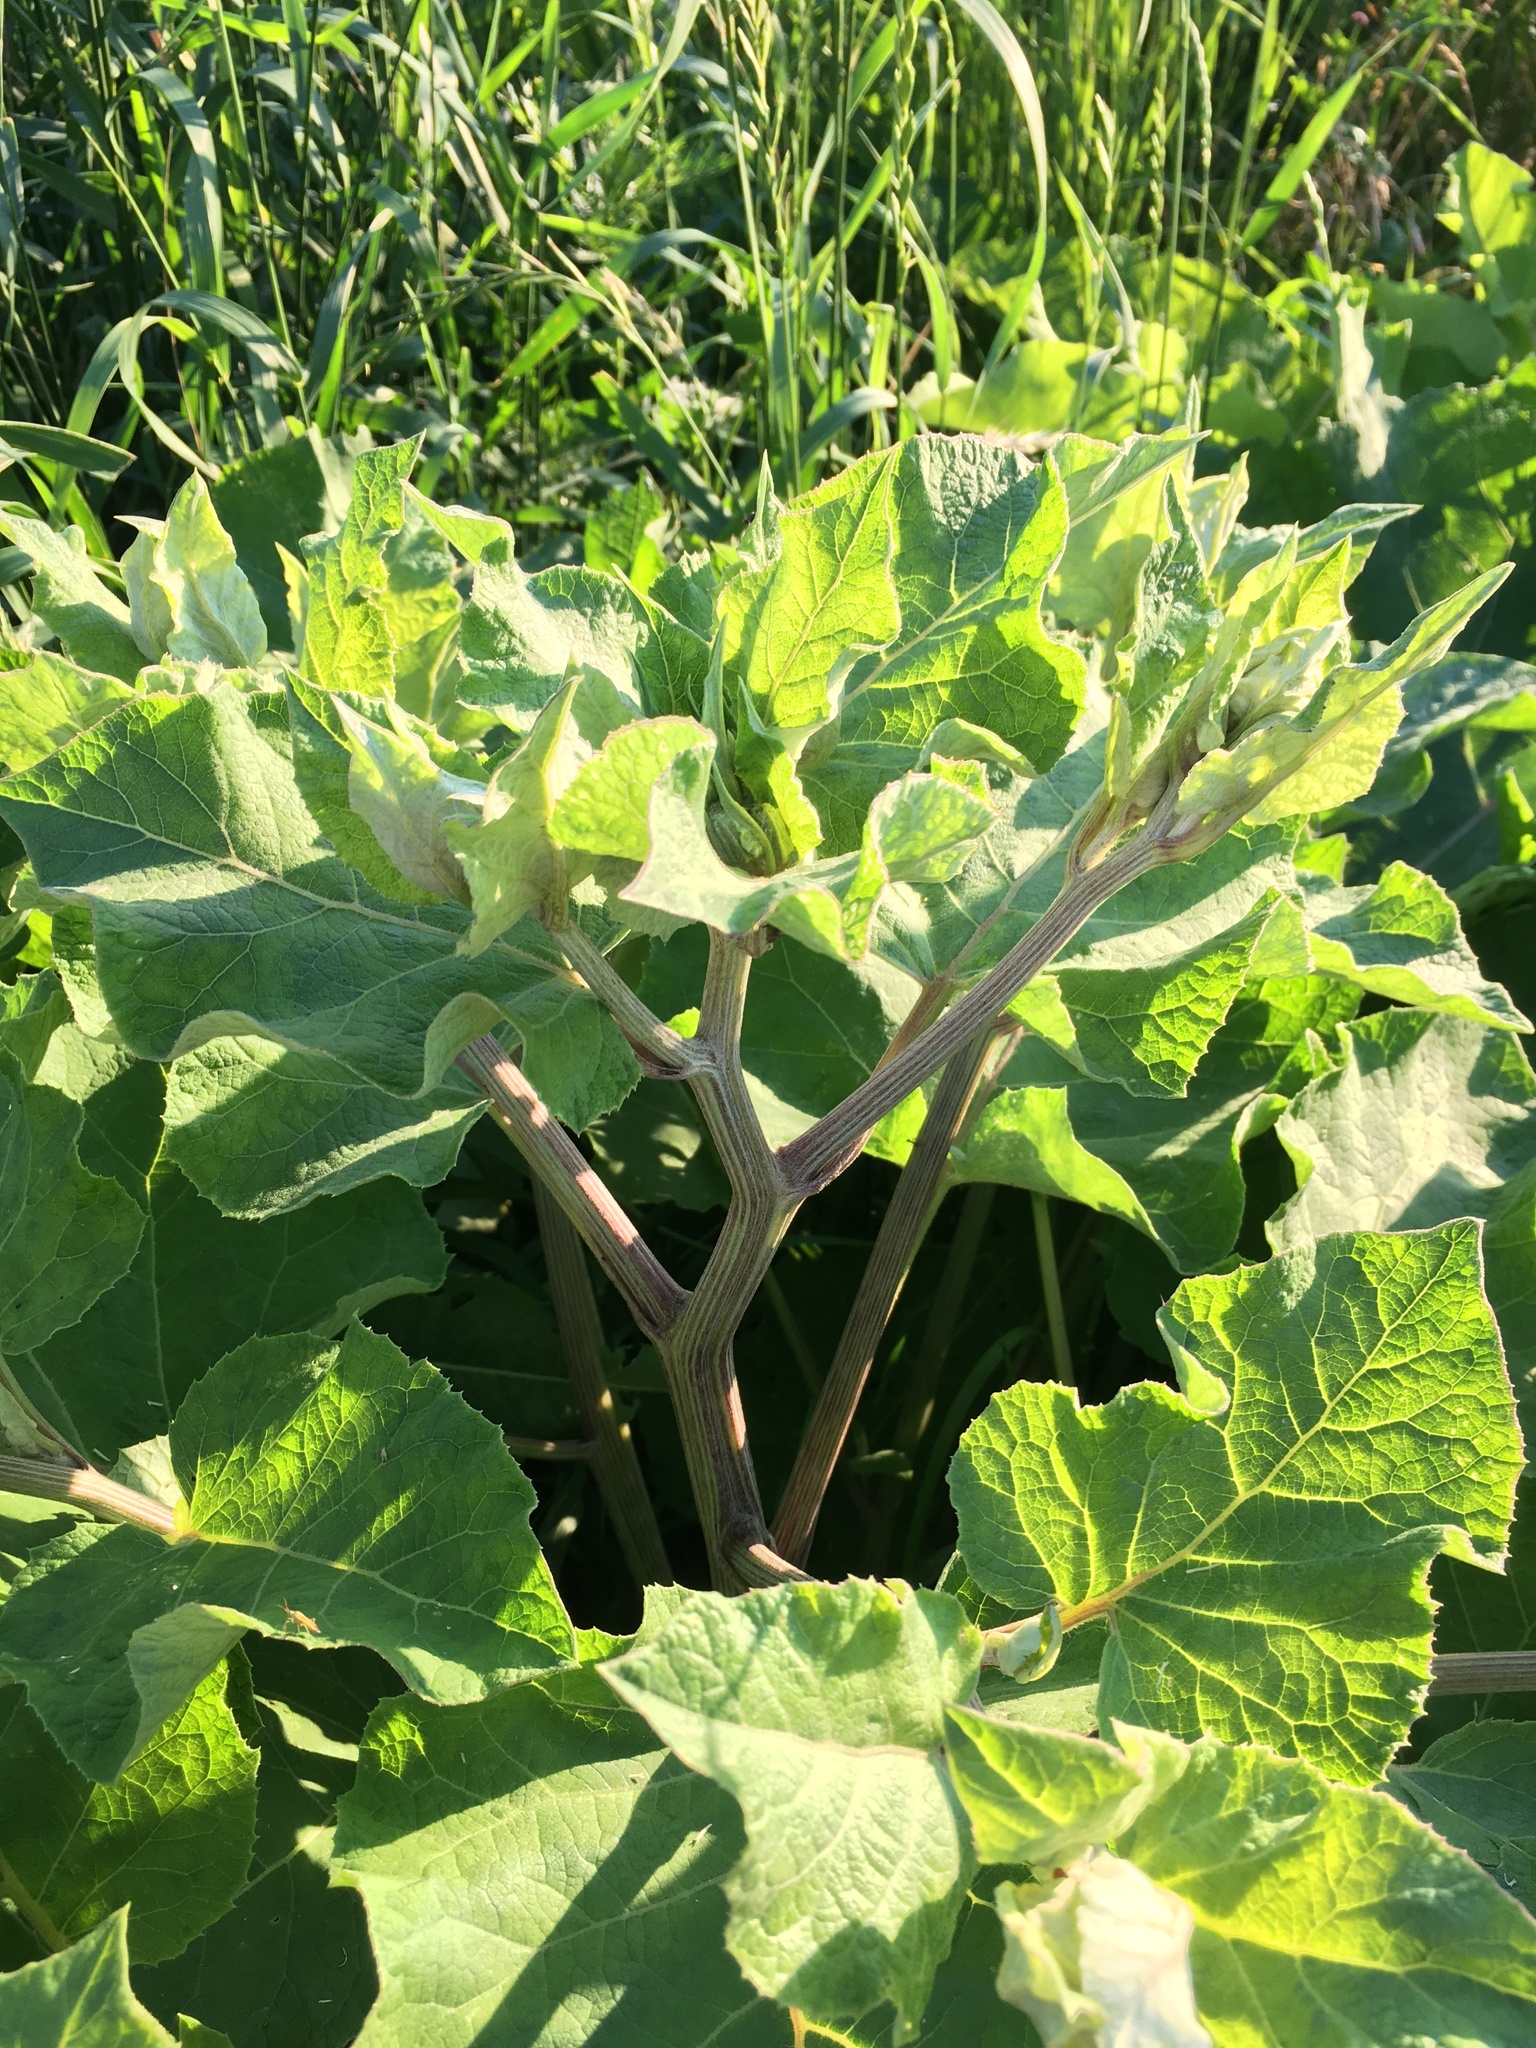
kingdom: Plantae
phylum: Tracheophyta
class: Magnoliopsida
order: Asterales
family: Asteraceae
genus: Arctium
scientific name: Arctium
